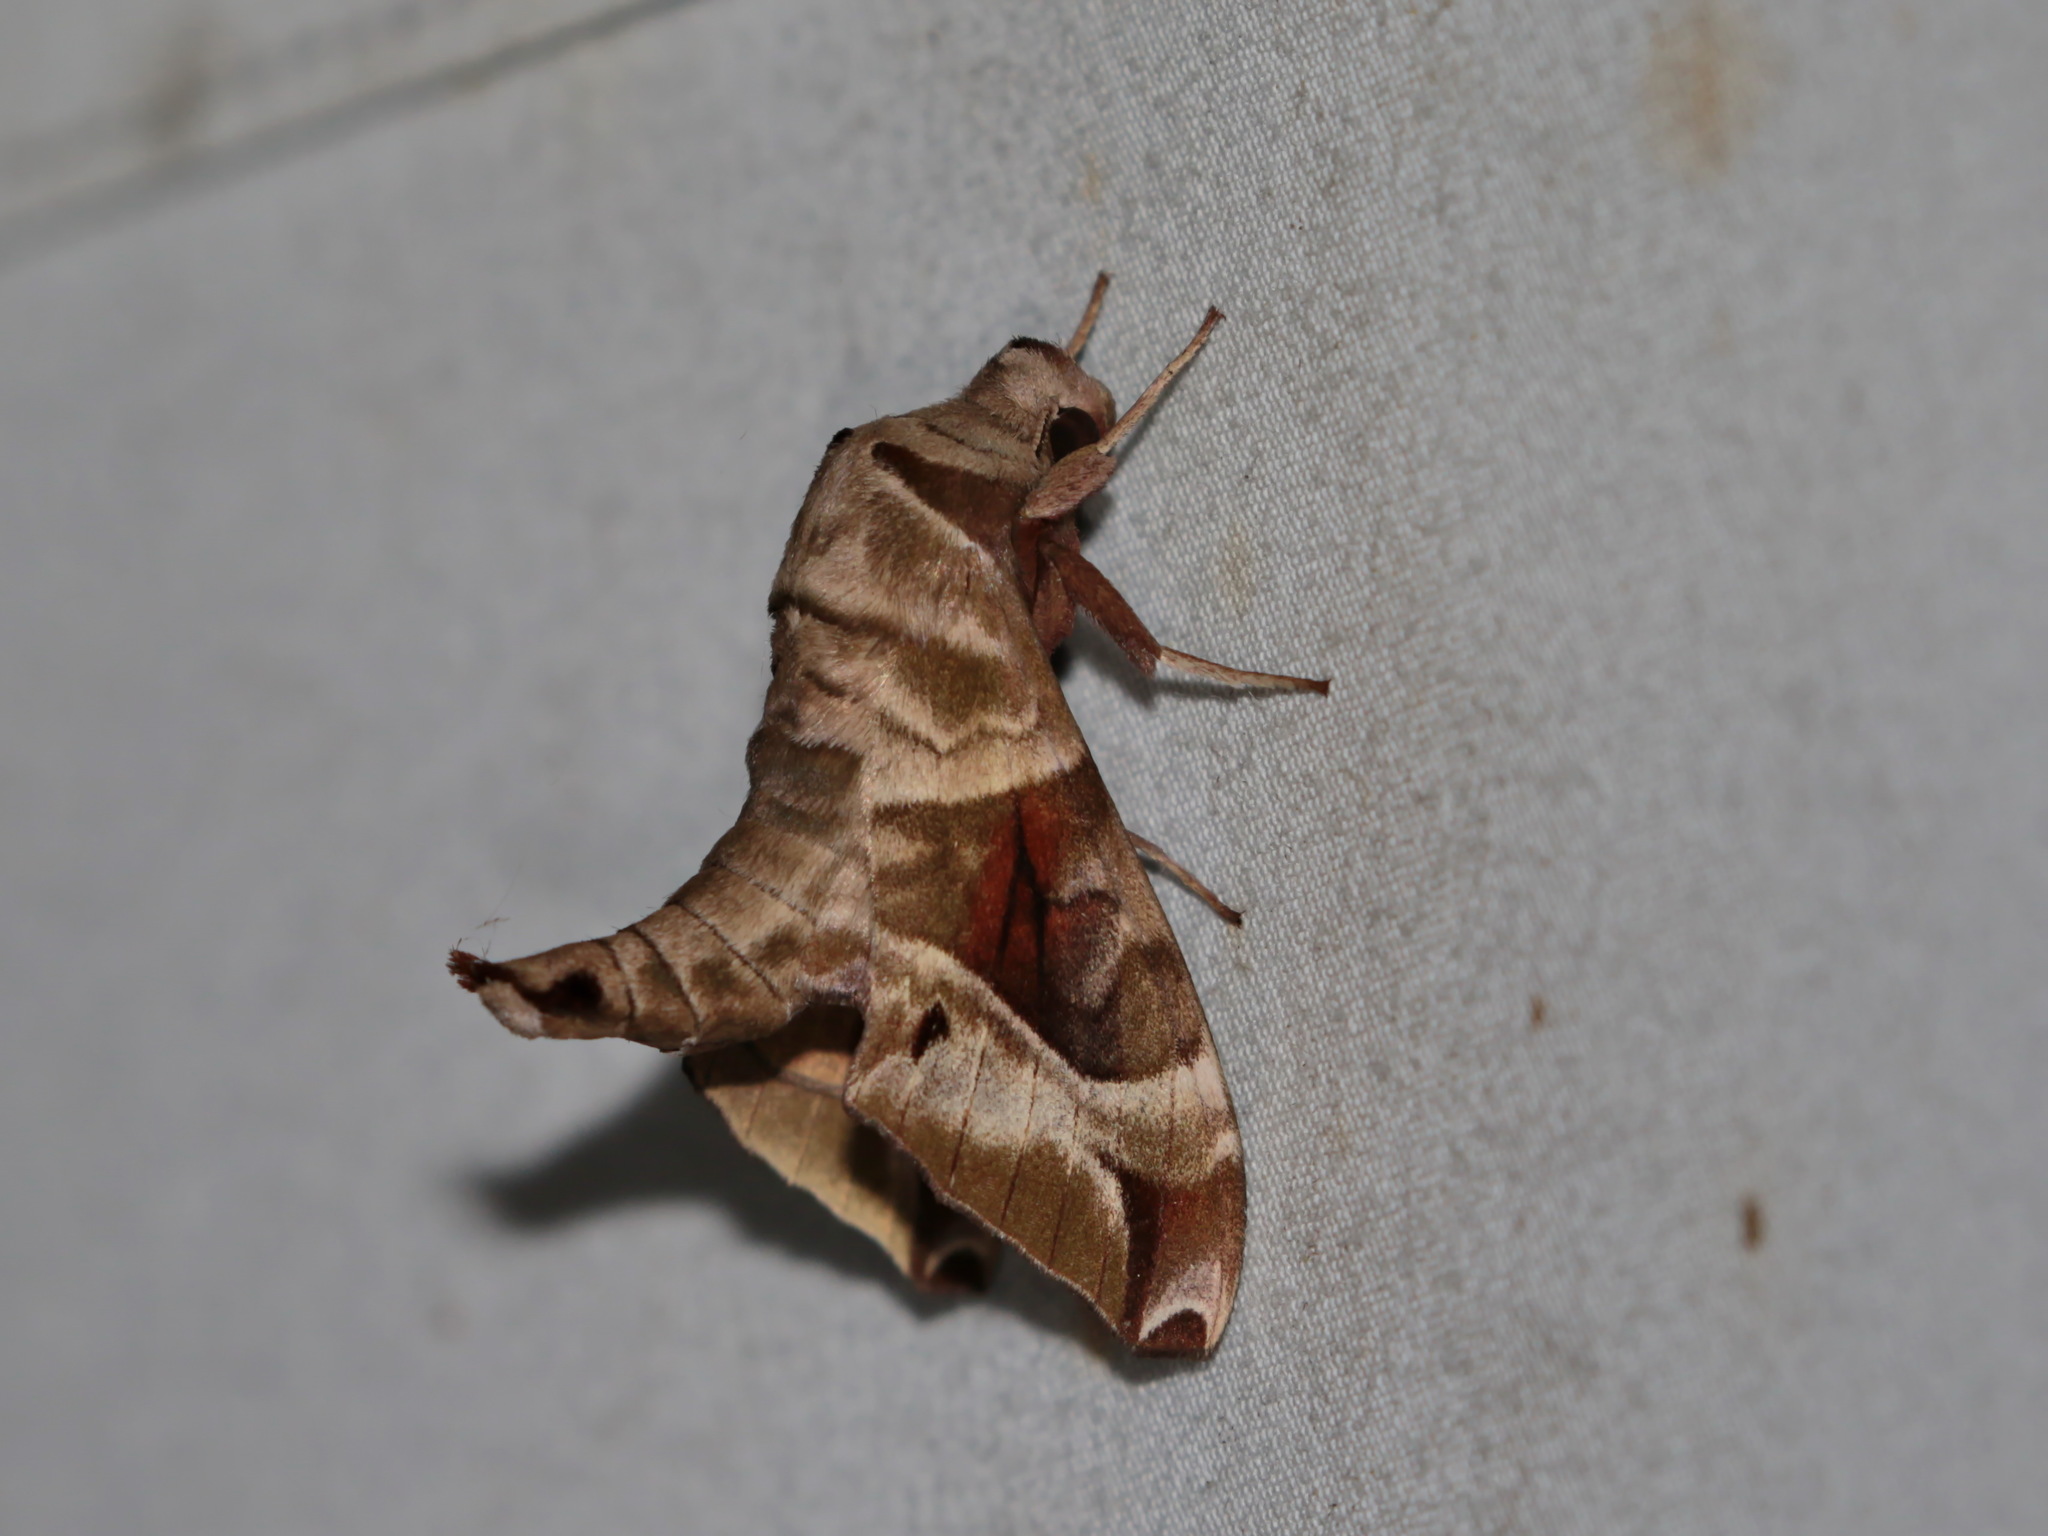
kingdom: Animalia
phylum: Arthropoda
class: Insecta
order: Lepidoptera
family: Sphingidae
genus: Craspedortha
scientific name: Craspedortha porphyria
